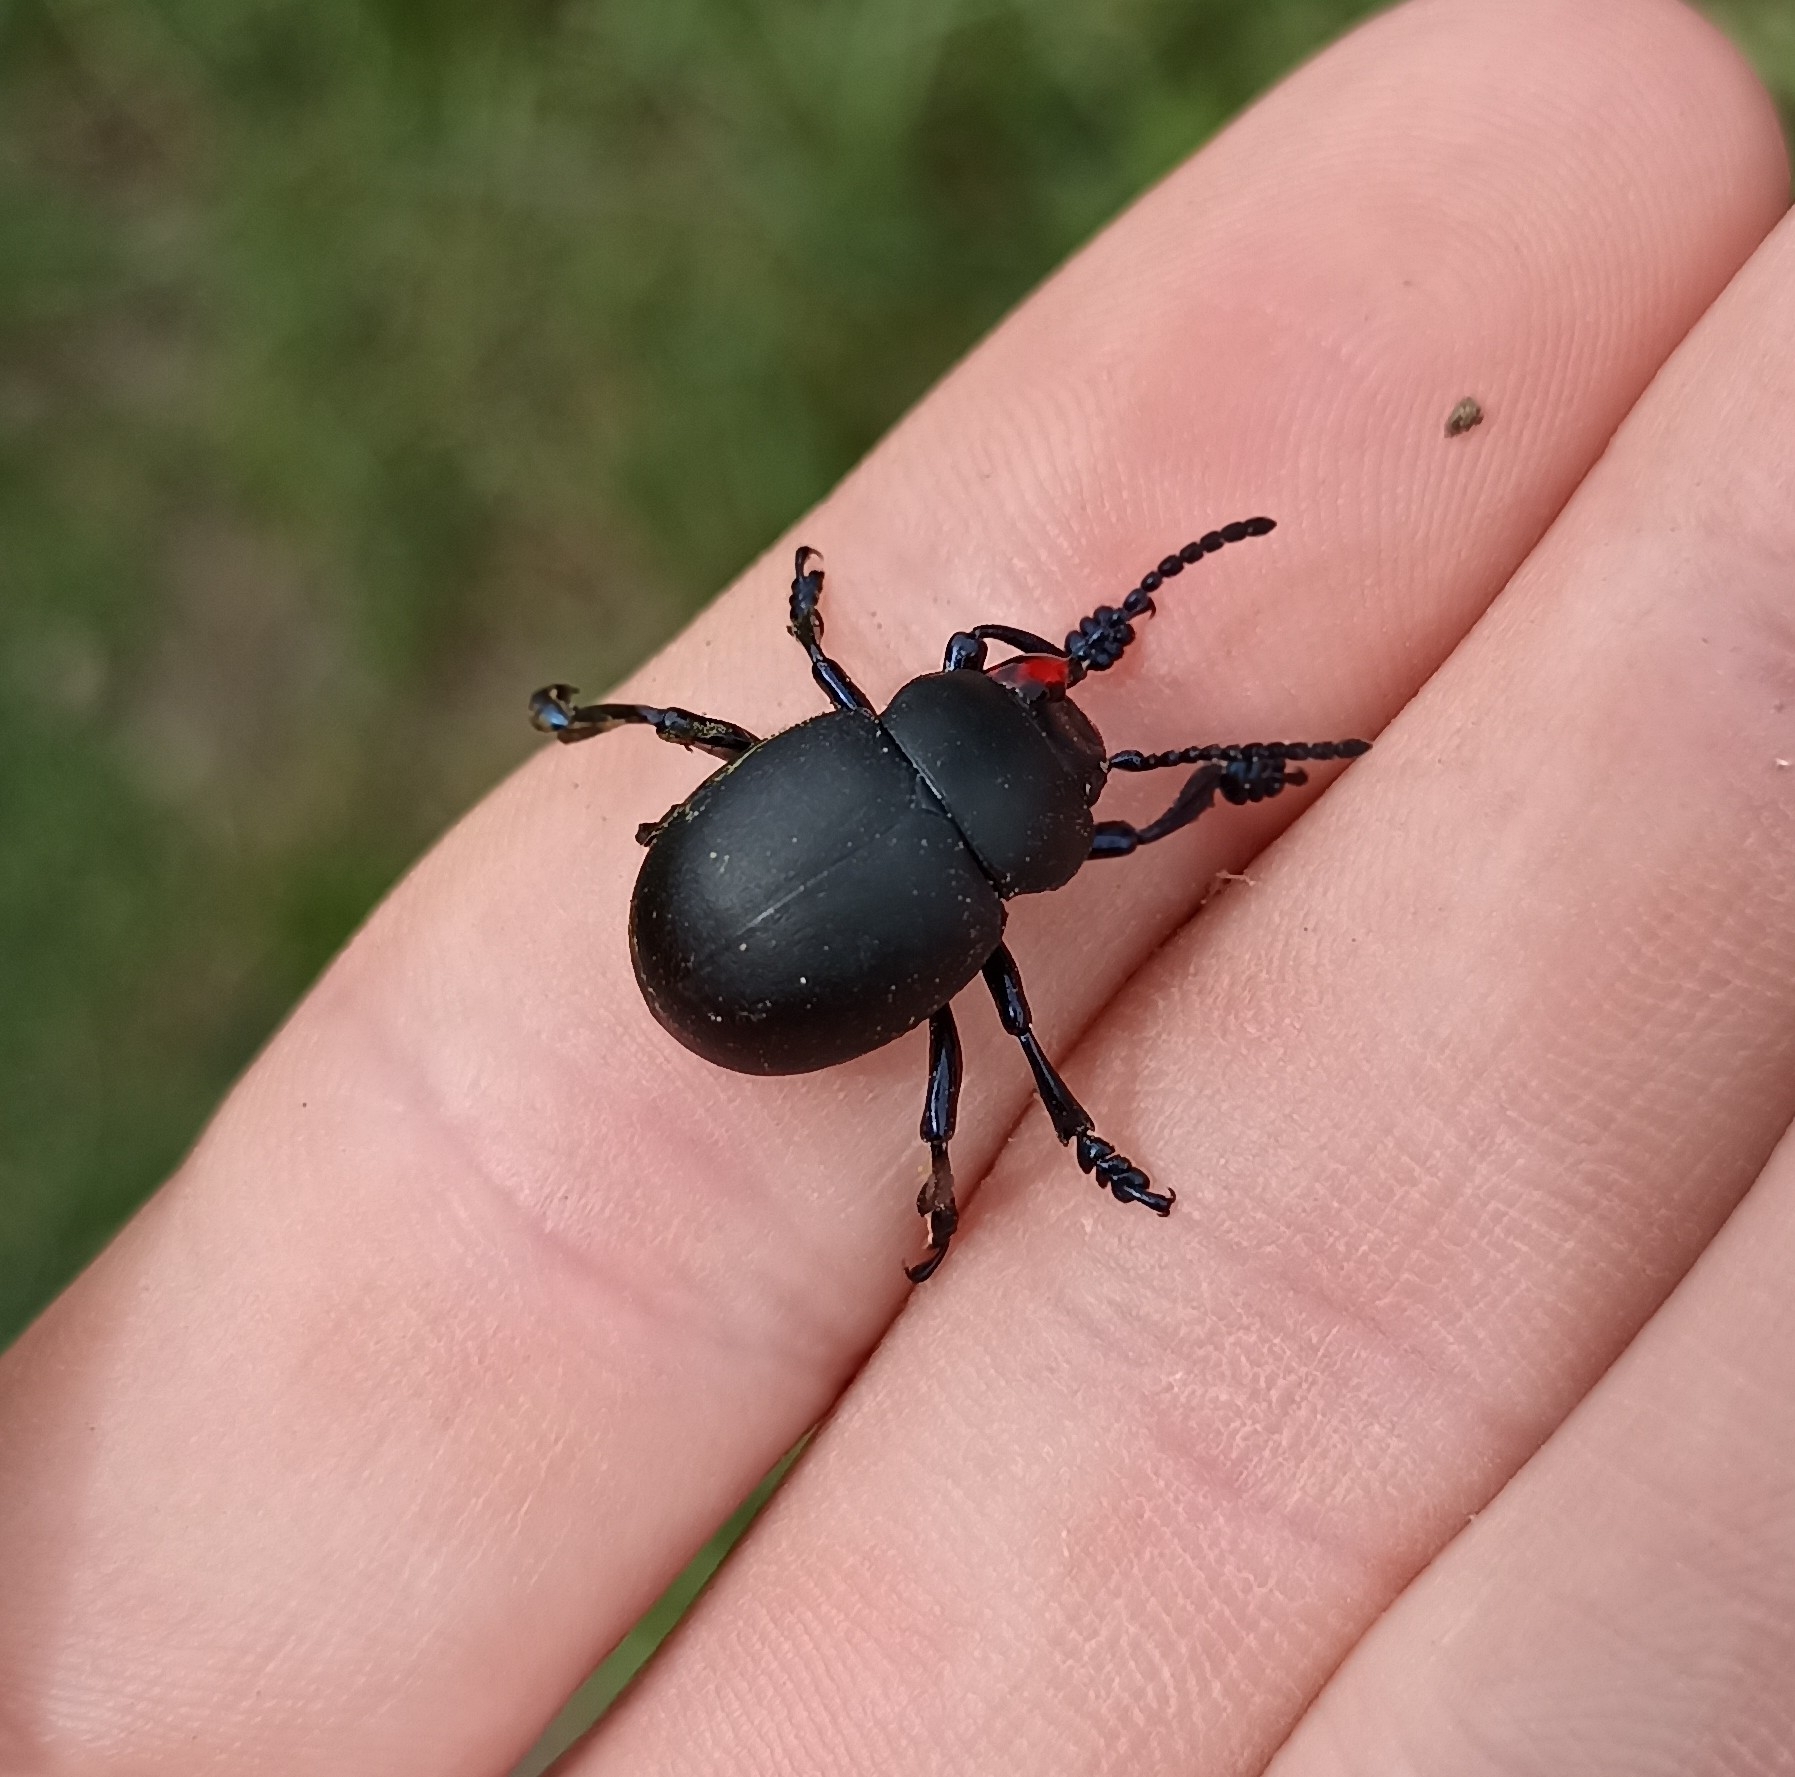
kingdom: Animalia
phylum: Arthropoda
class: Insecta
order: Coleoptera
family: Chrysomelidae
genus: Timarcha
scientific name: Timarcha tenebricosa
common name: Bloody-nosed beetle
